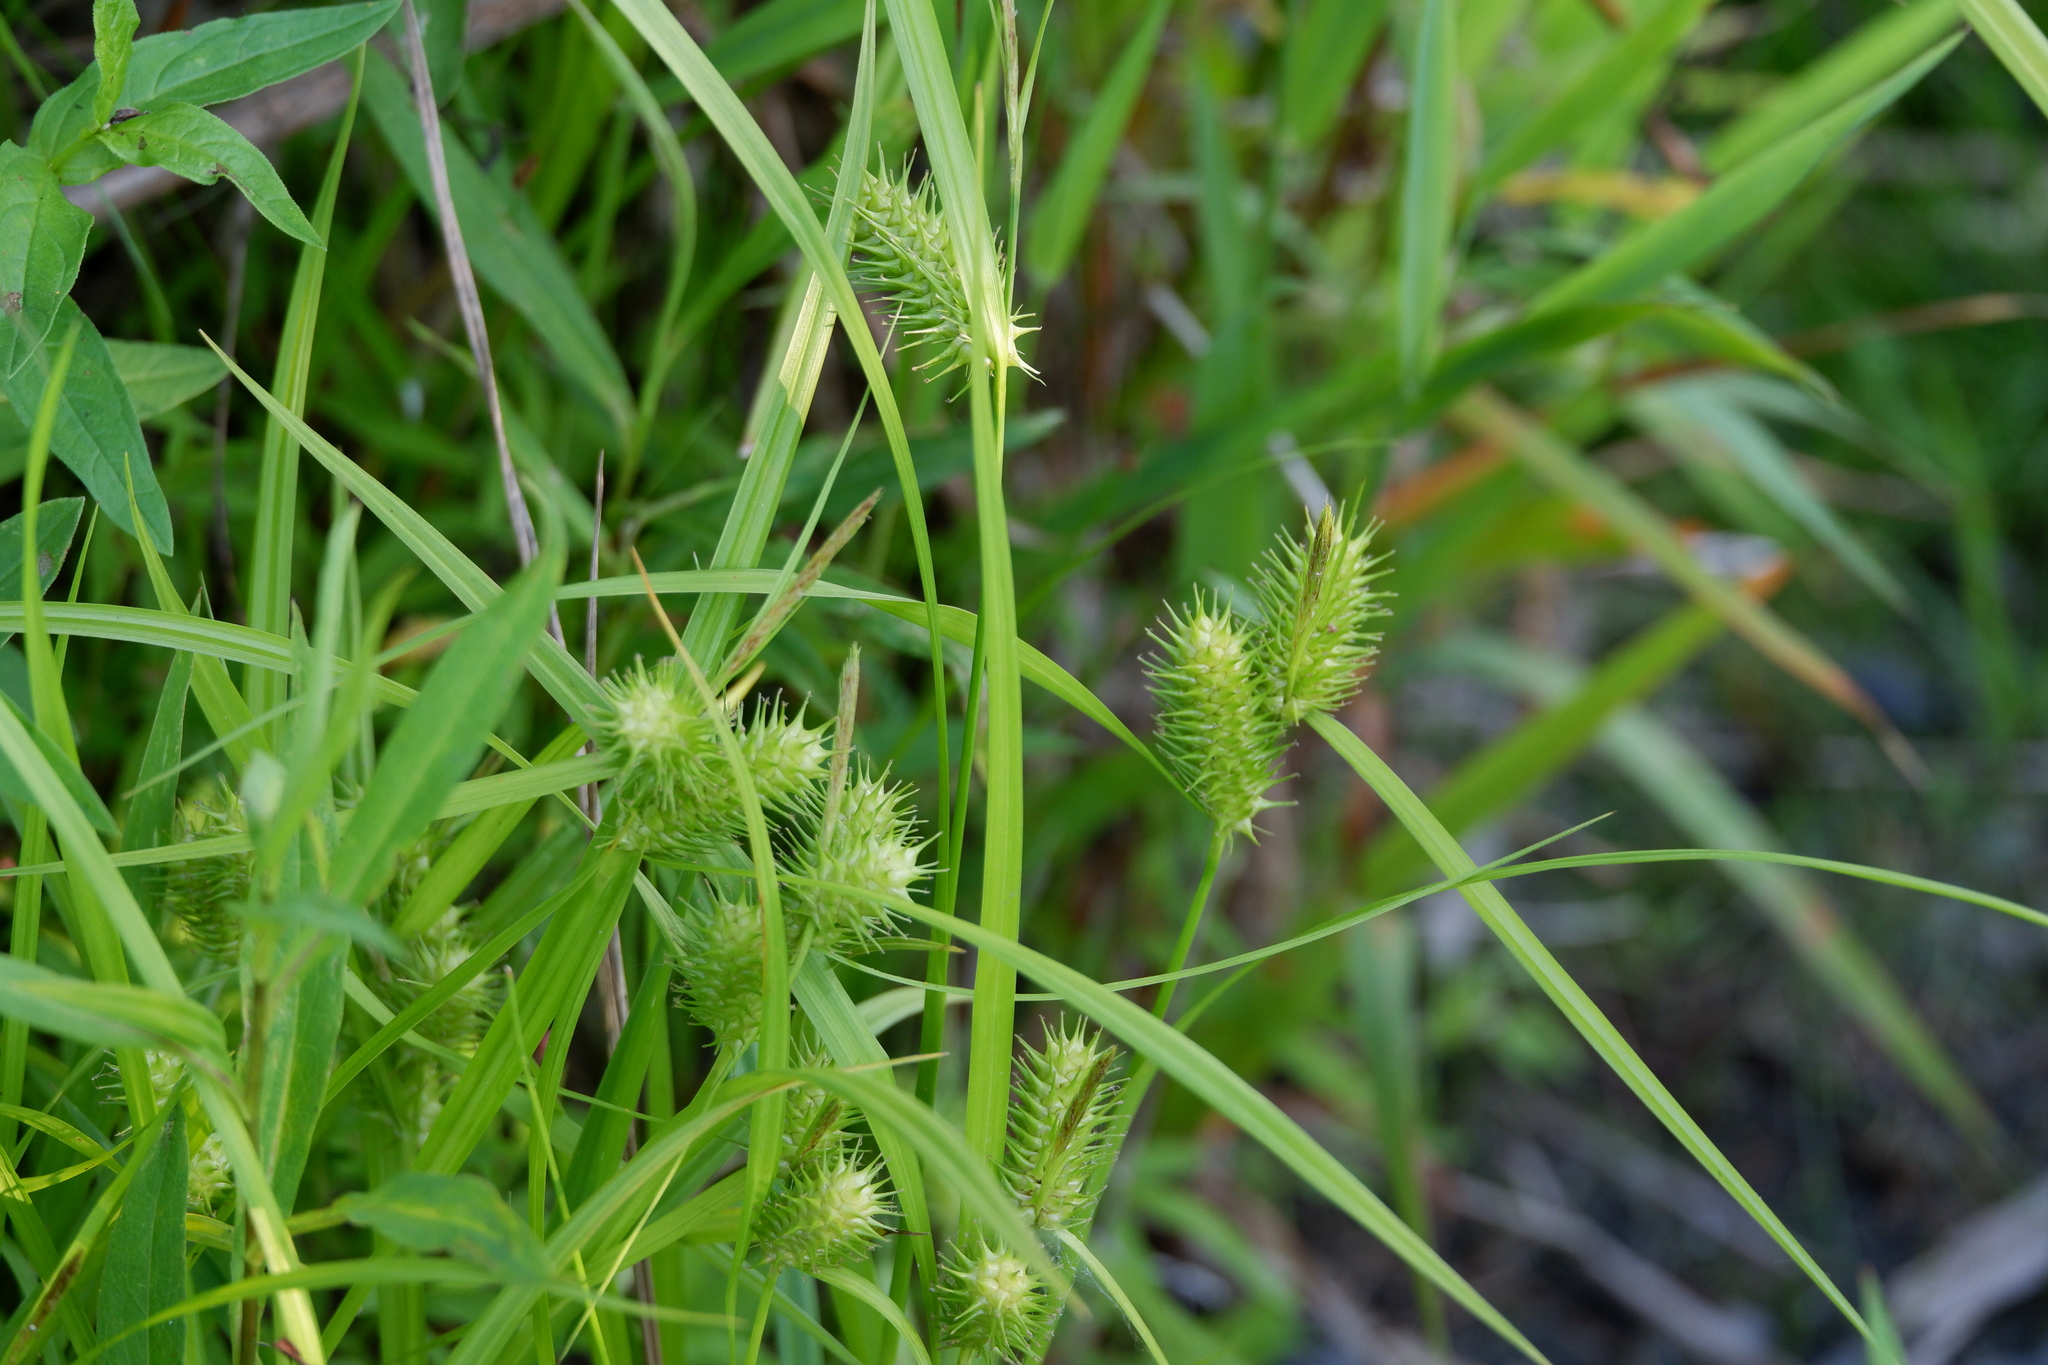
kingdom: Plantae
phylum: Tracheophyta
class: Liliopsida
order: Poales
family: Cyperaceae
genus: Carex
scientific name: Carex lurida
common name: Sallow sedge
